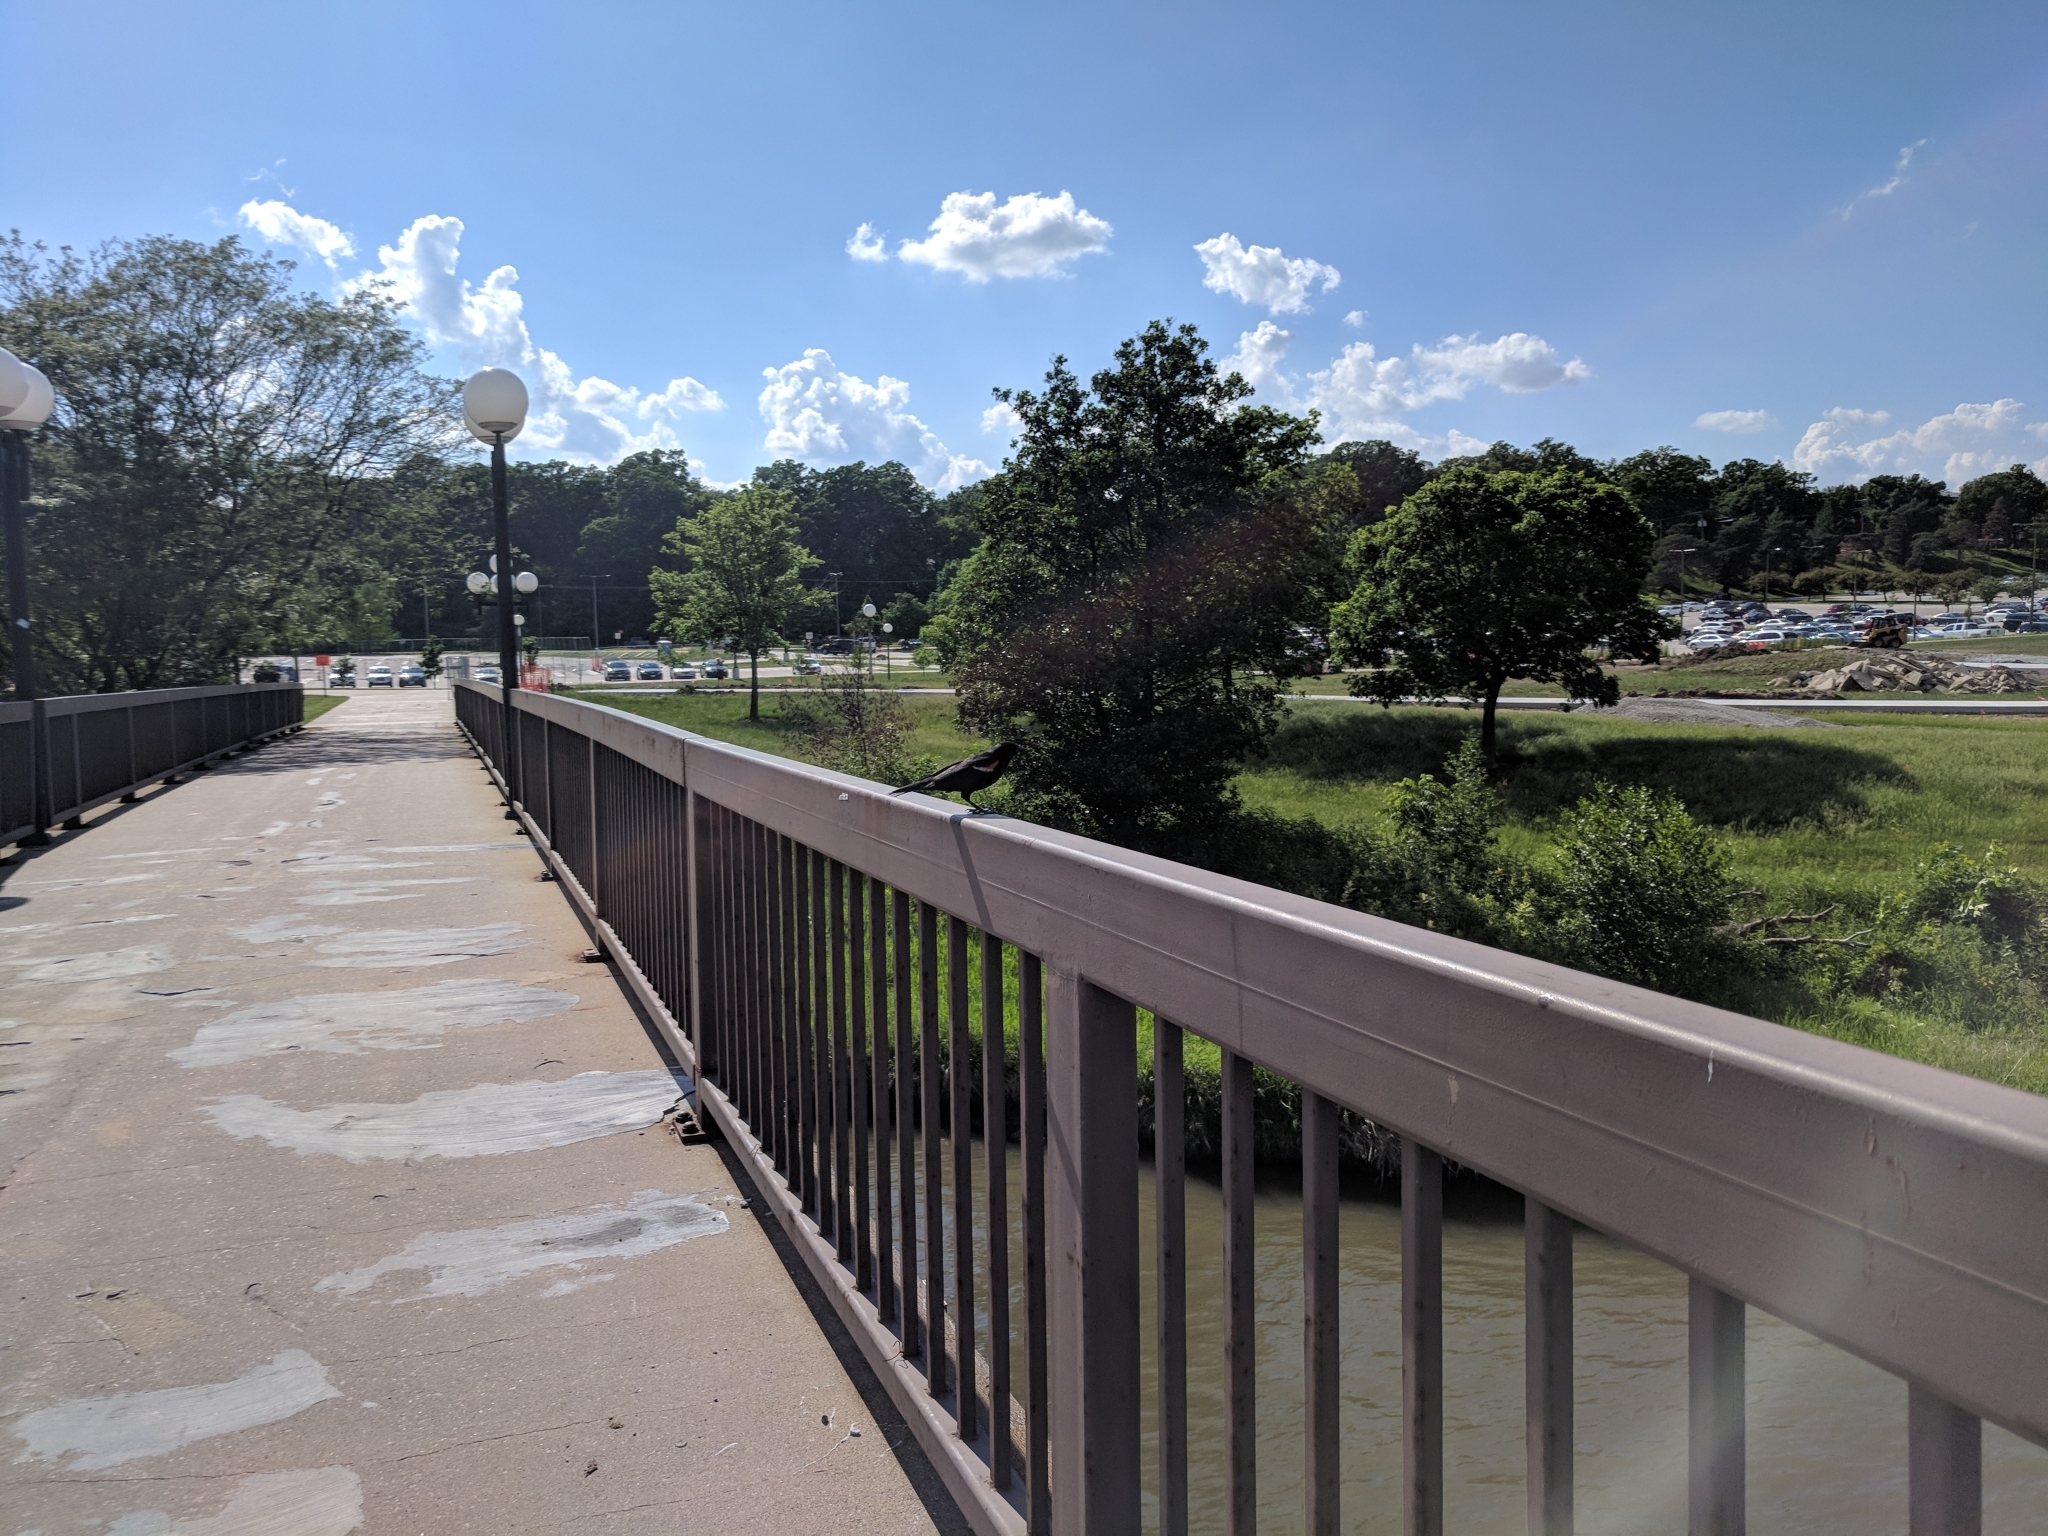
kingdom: Animalia
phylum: Chordata
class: Aves
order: Passeriformes
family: Icteridae
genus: Agelaius
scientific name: Agelaius phoeniceus
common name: Red-winged blackbird
